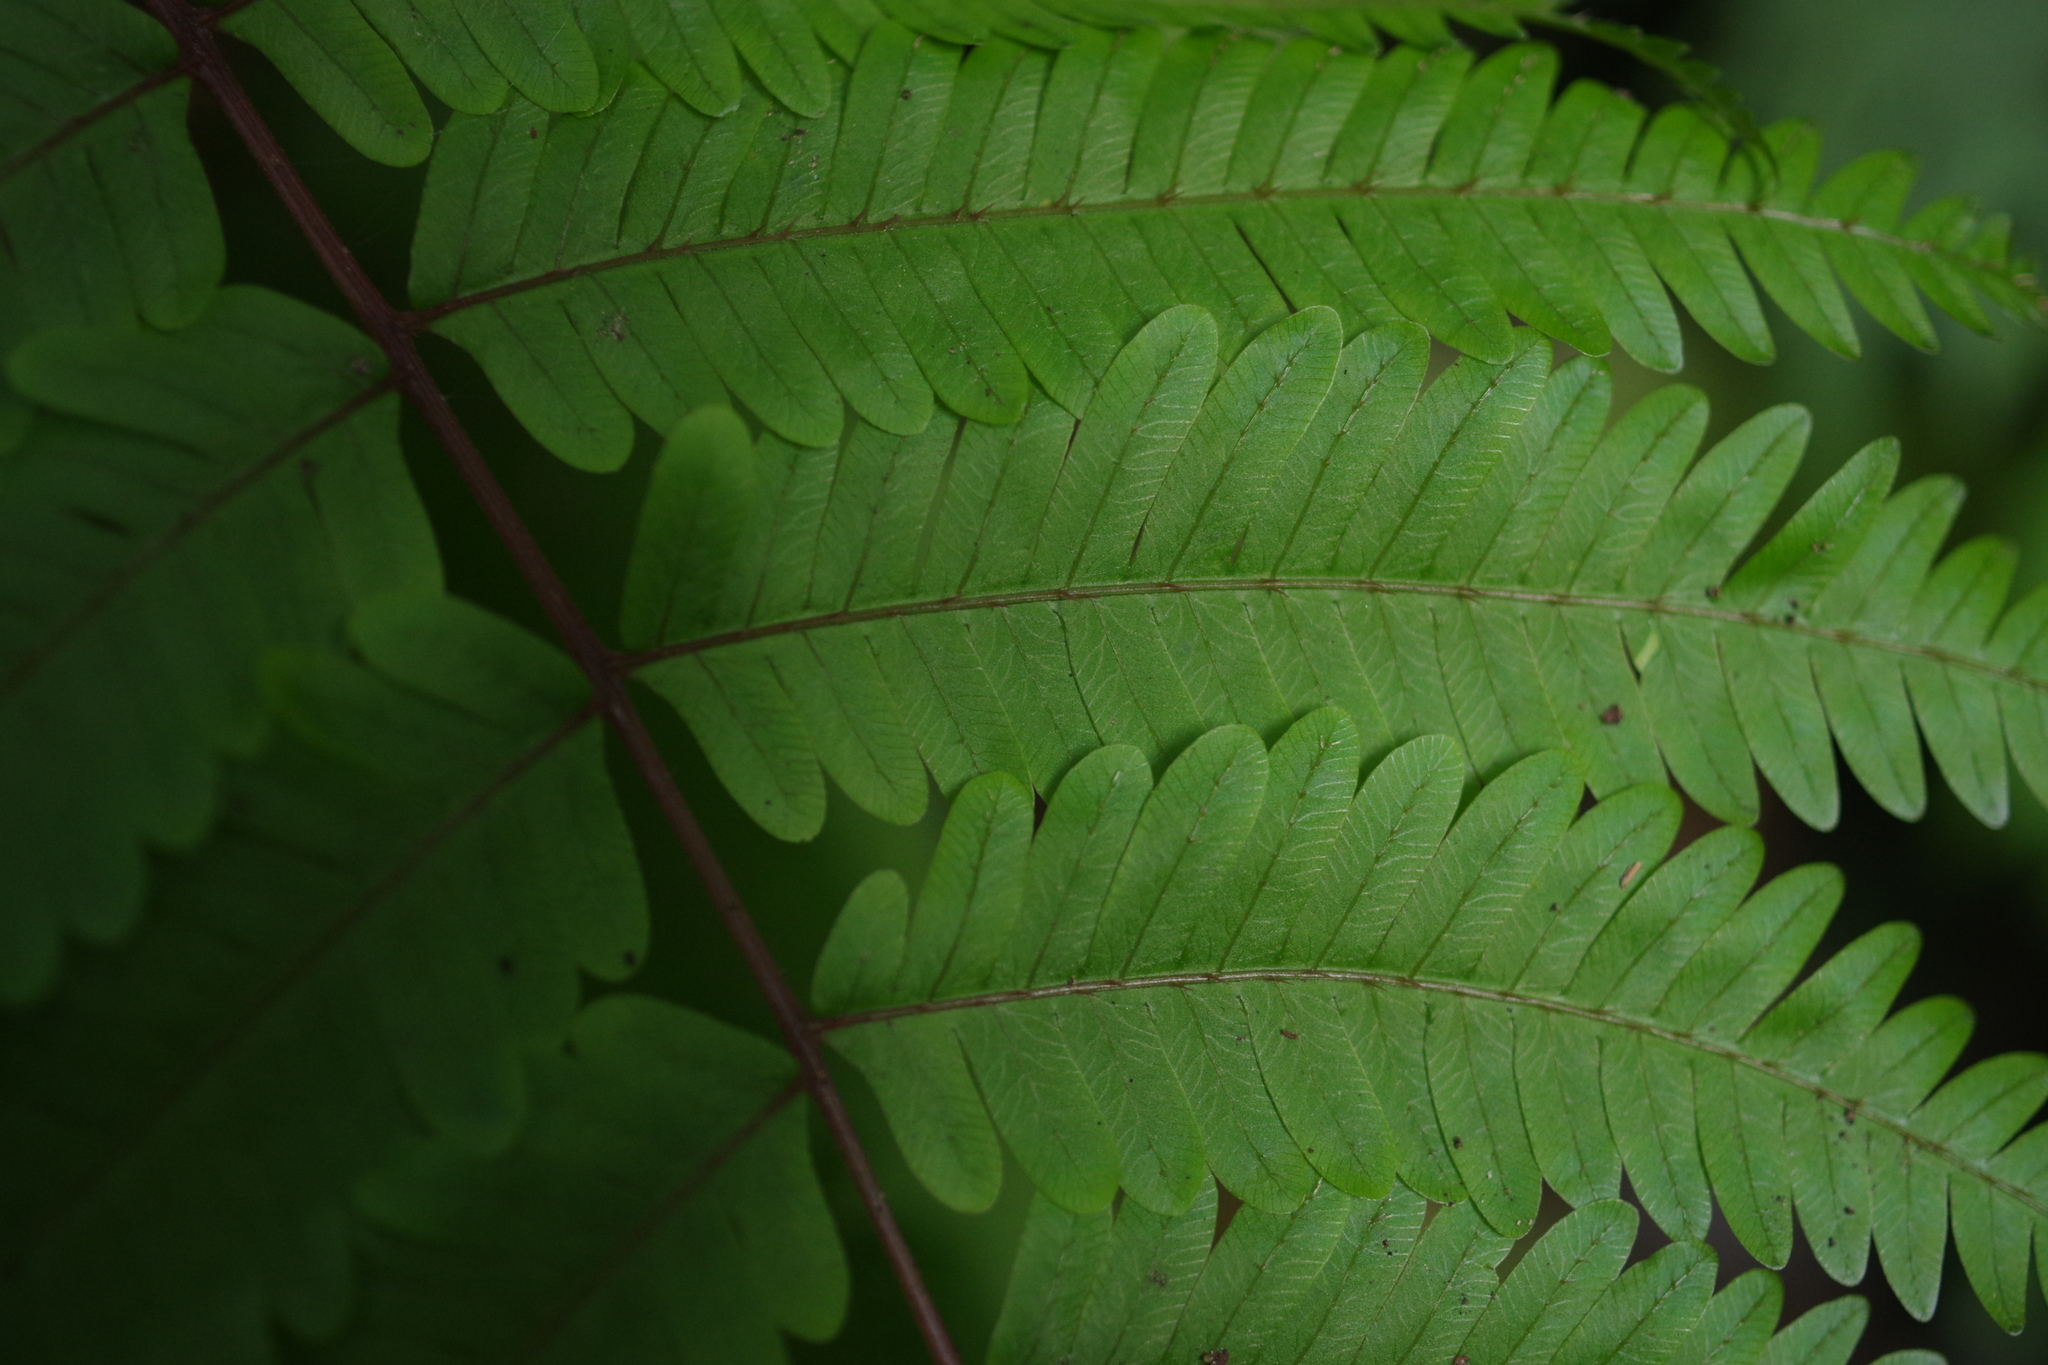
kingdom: Plantae
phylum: Tracheophyta
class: Polypodiopsida
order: Polypodiales
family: Pteridaceae
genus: Pteris
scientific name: Pteris setulosocostulata
